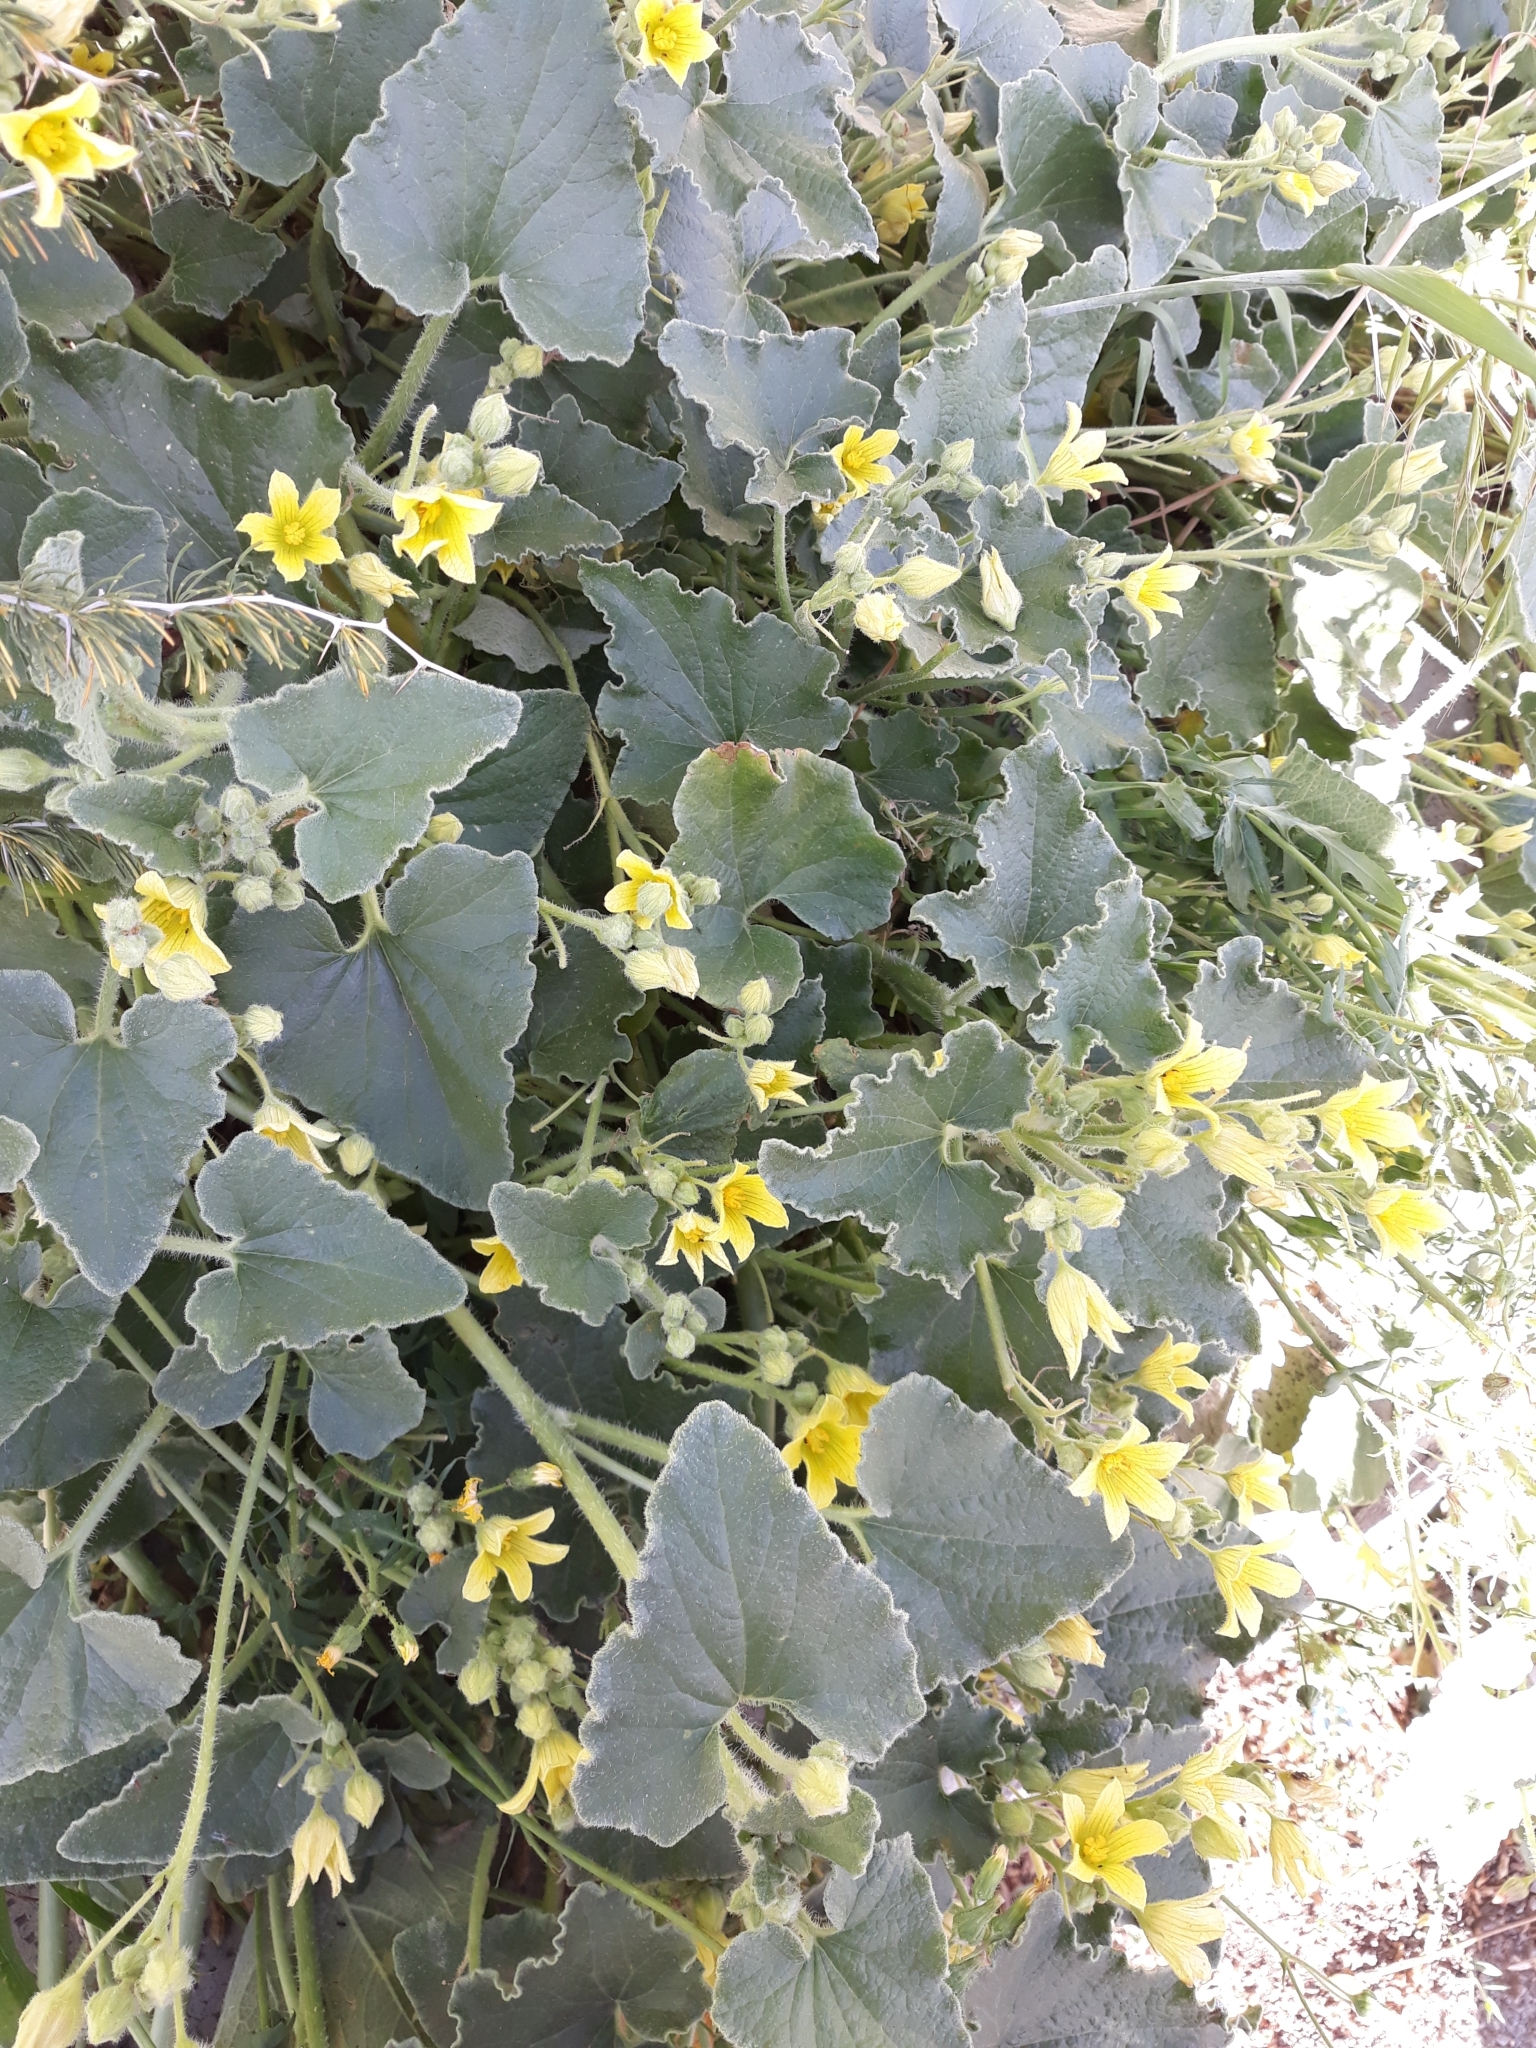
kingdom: Plantae
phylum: Tracheophyta
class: Magnoliopsida
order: Cucurbitales
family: Cucurbitaceae
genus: Ecballium
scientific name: Ecballium elaterium
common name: Squirting cucumber
